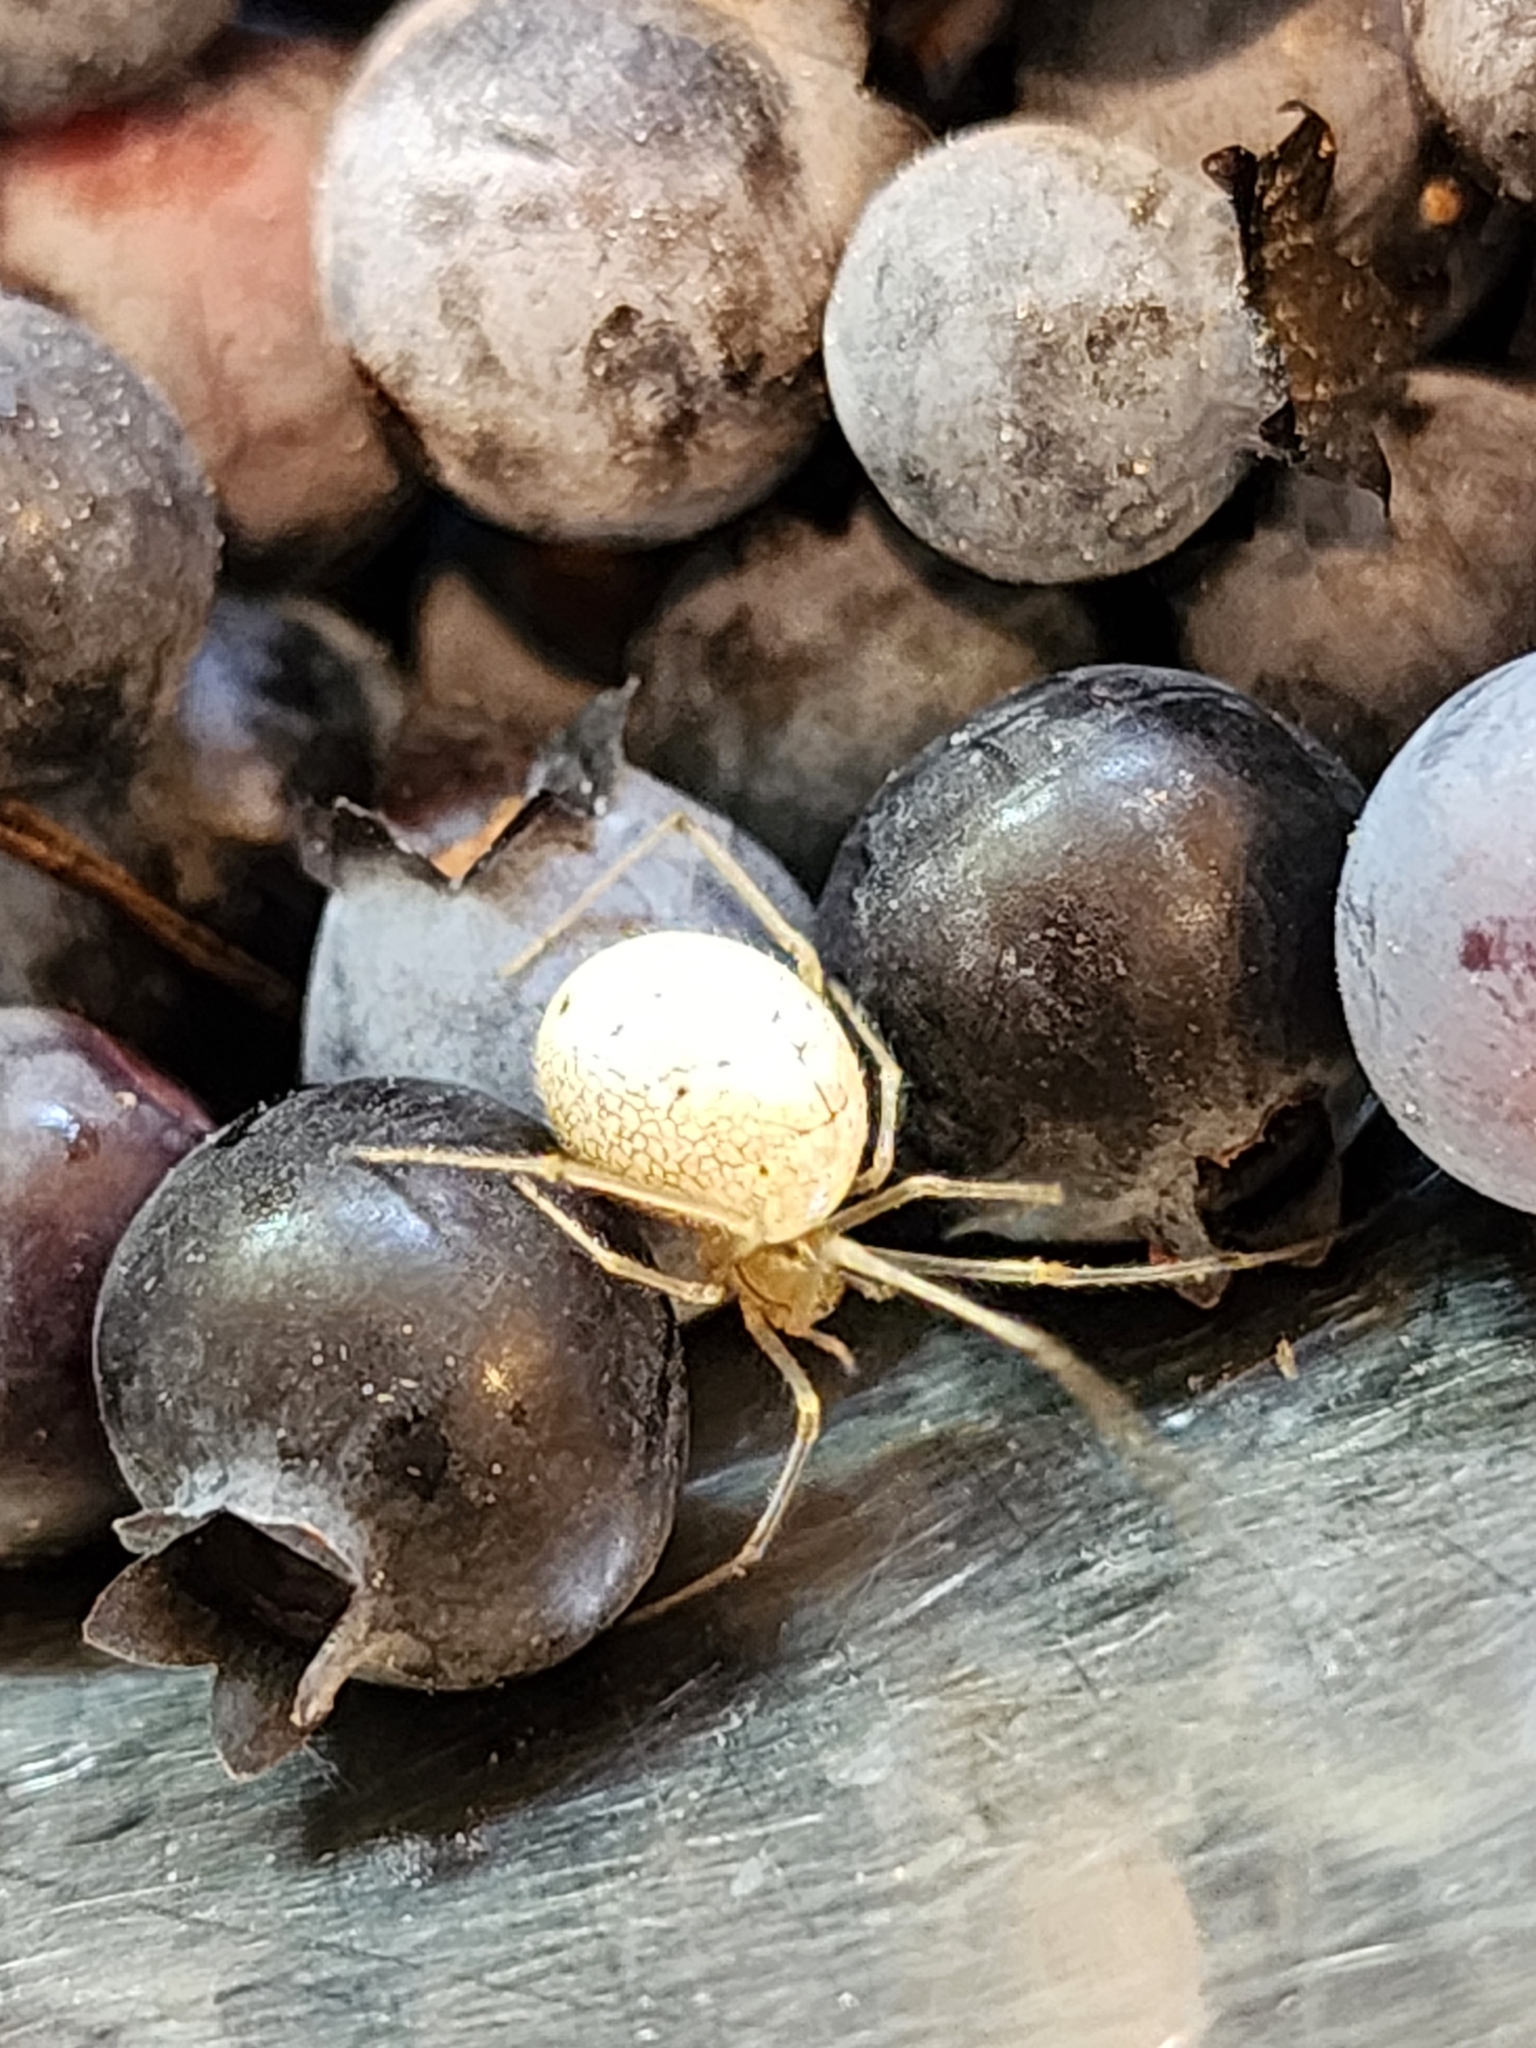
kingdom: Animalia
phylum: Arthropoda
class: Arachnida
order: Araneae
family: Theridiidae
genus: Enoplognatha
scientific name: Enoplognatha ovata
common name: Common candy-striped spider
